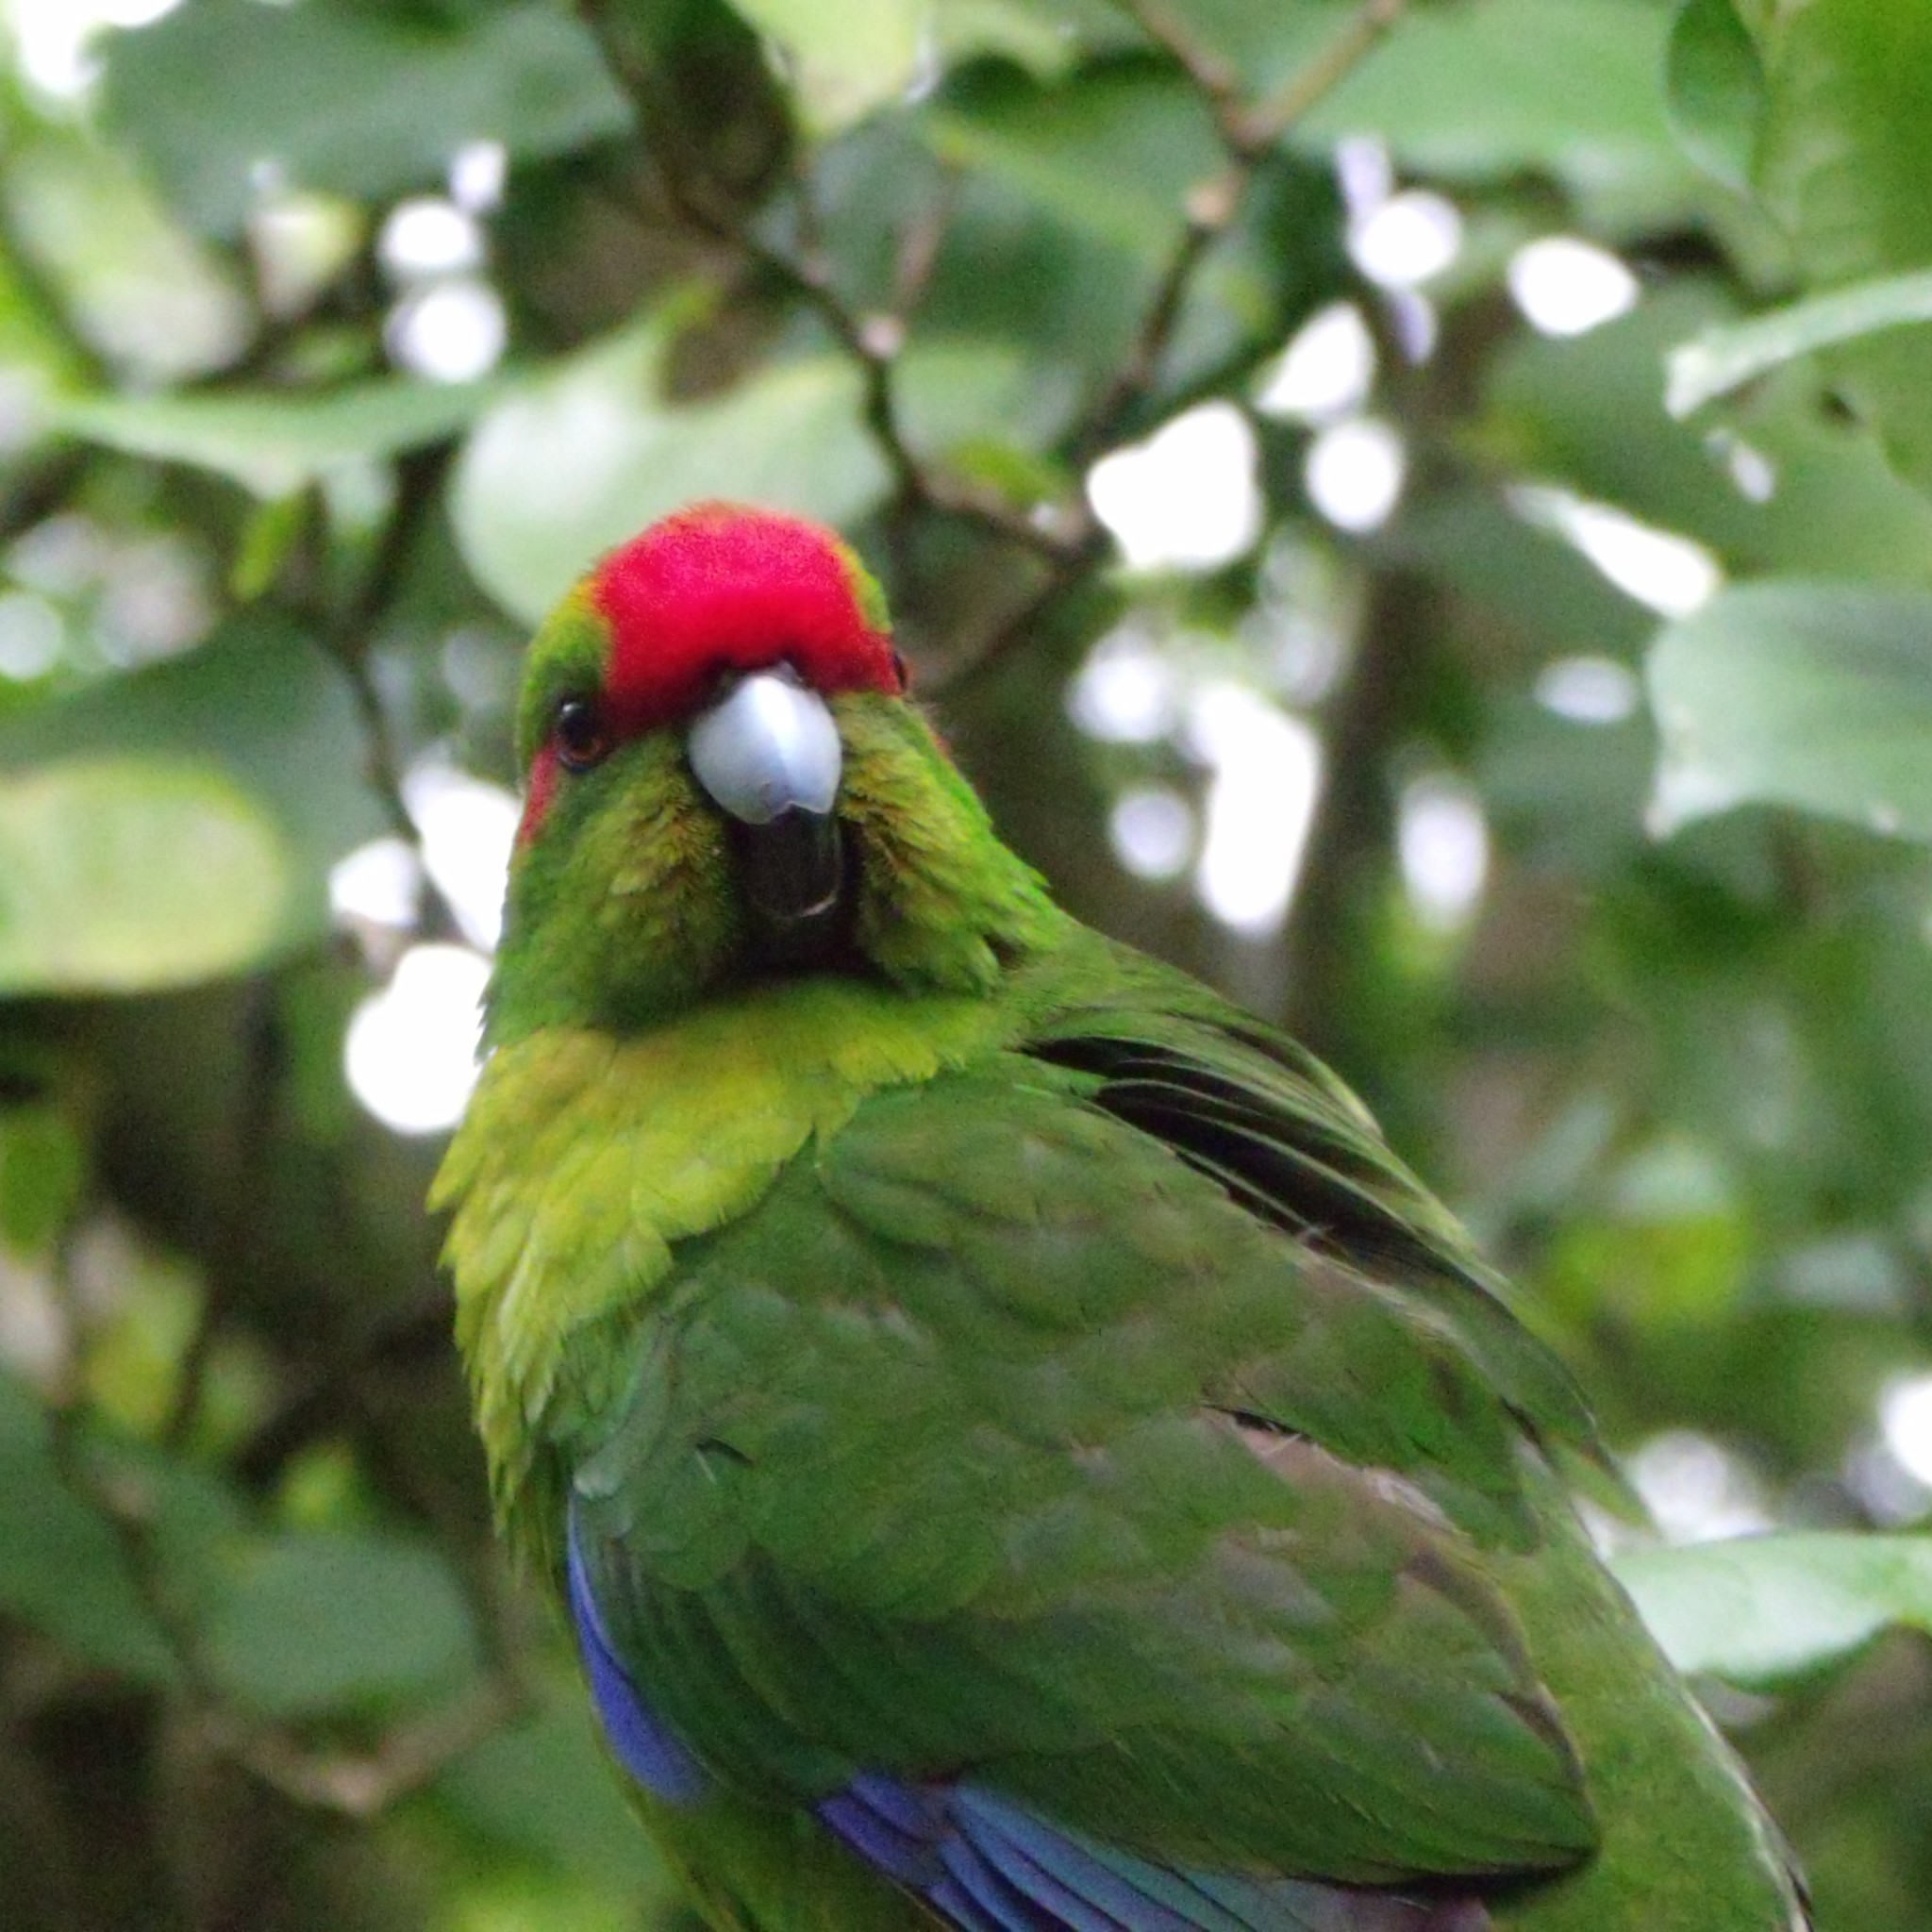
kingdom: Animalia
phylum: Chordata
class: Aves
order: Psittaciformes
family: Psittacidae
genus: Cyanoramphus
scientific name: Cyanoramphus novaezelandiae
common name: Red-fronted parakeet
